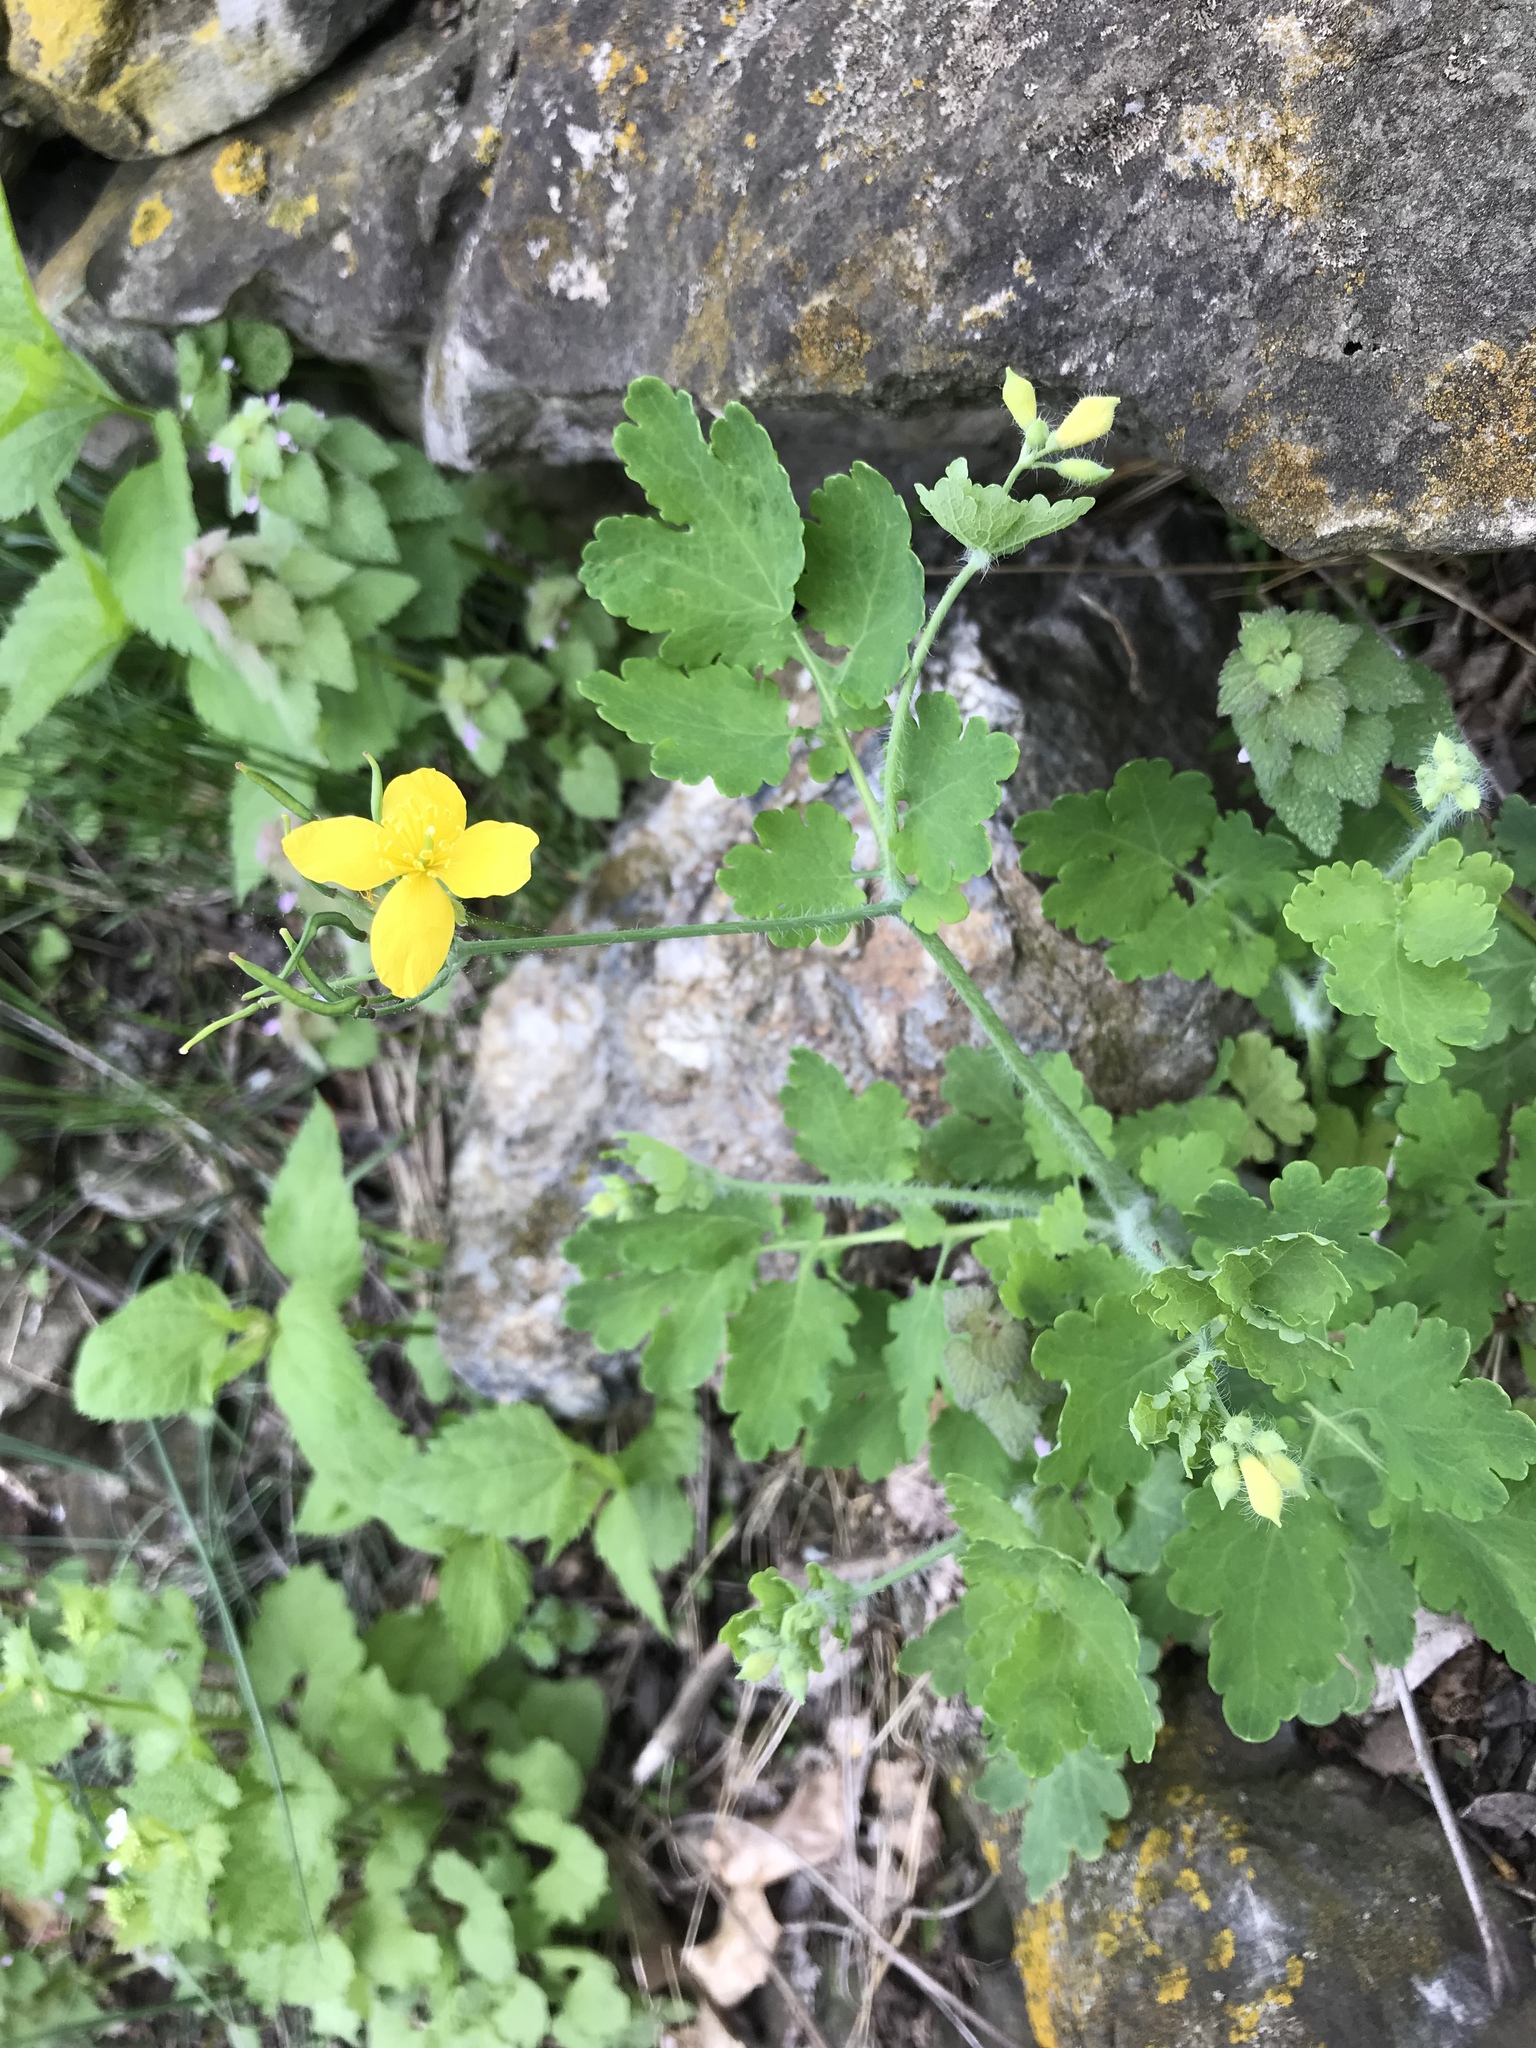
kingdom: Plantae
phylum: Tracheophyta
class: Magnoliopsida
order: Ranunculales
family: Papaveraceae
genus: Chelidonium
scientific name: Chelidonium majus
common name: Greater celandine
